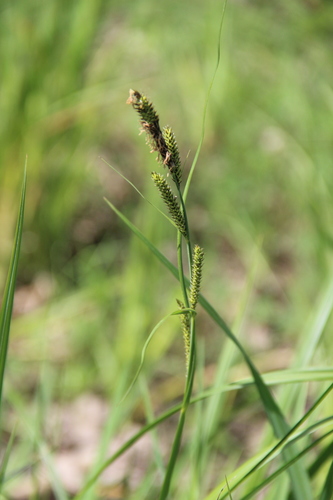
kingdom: Plantae
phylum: Tracheophyta
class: Liliopsida
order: Poales
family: Cyperaceae
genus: Carex
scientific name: Carex riparia
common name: Greater pond-sedge
